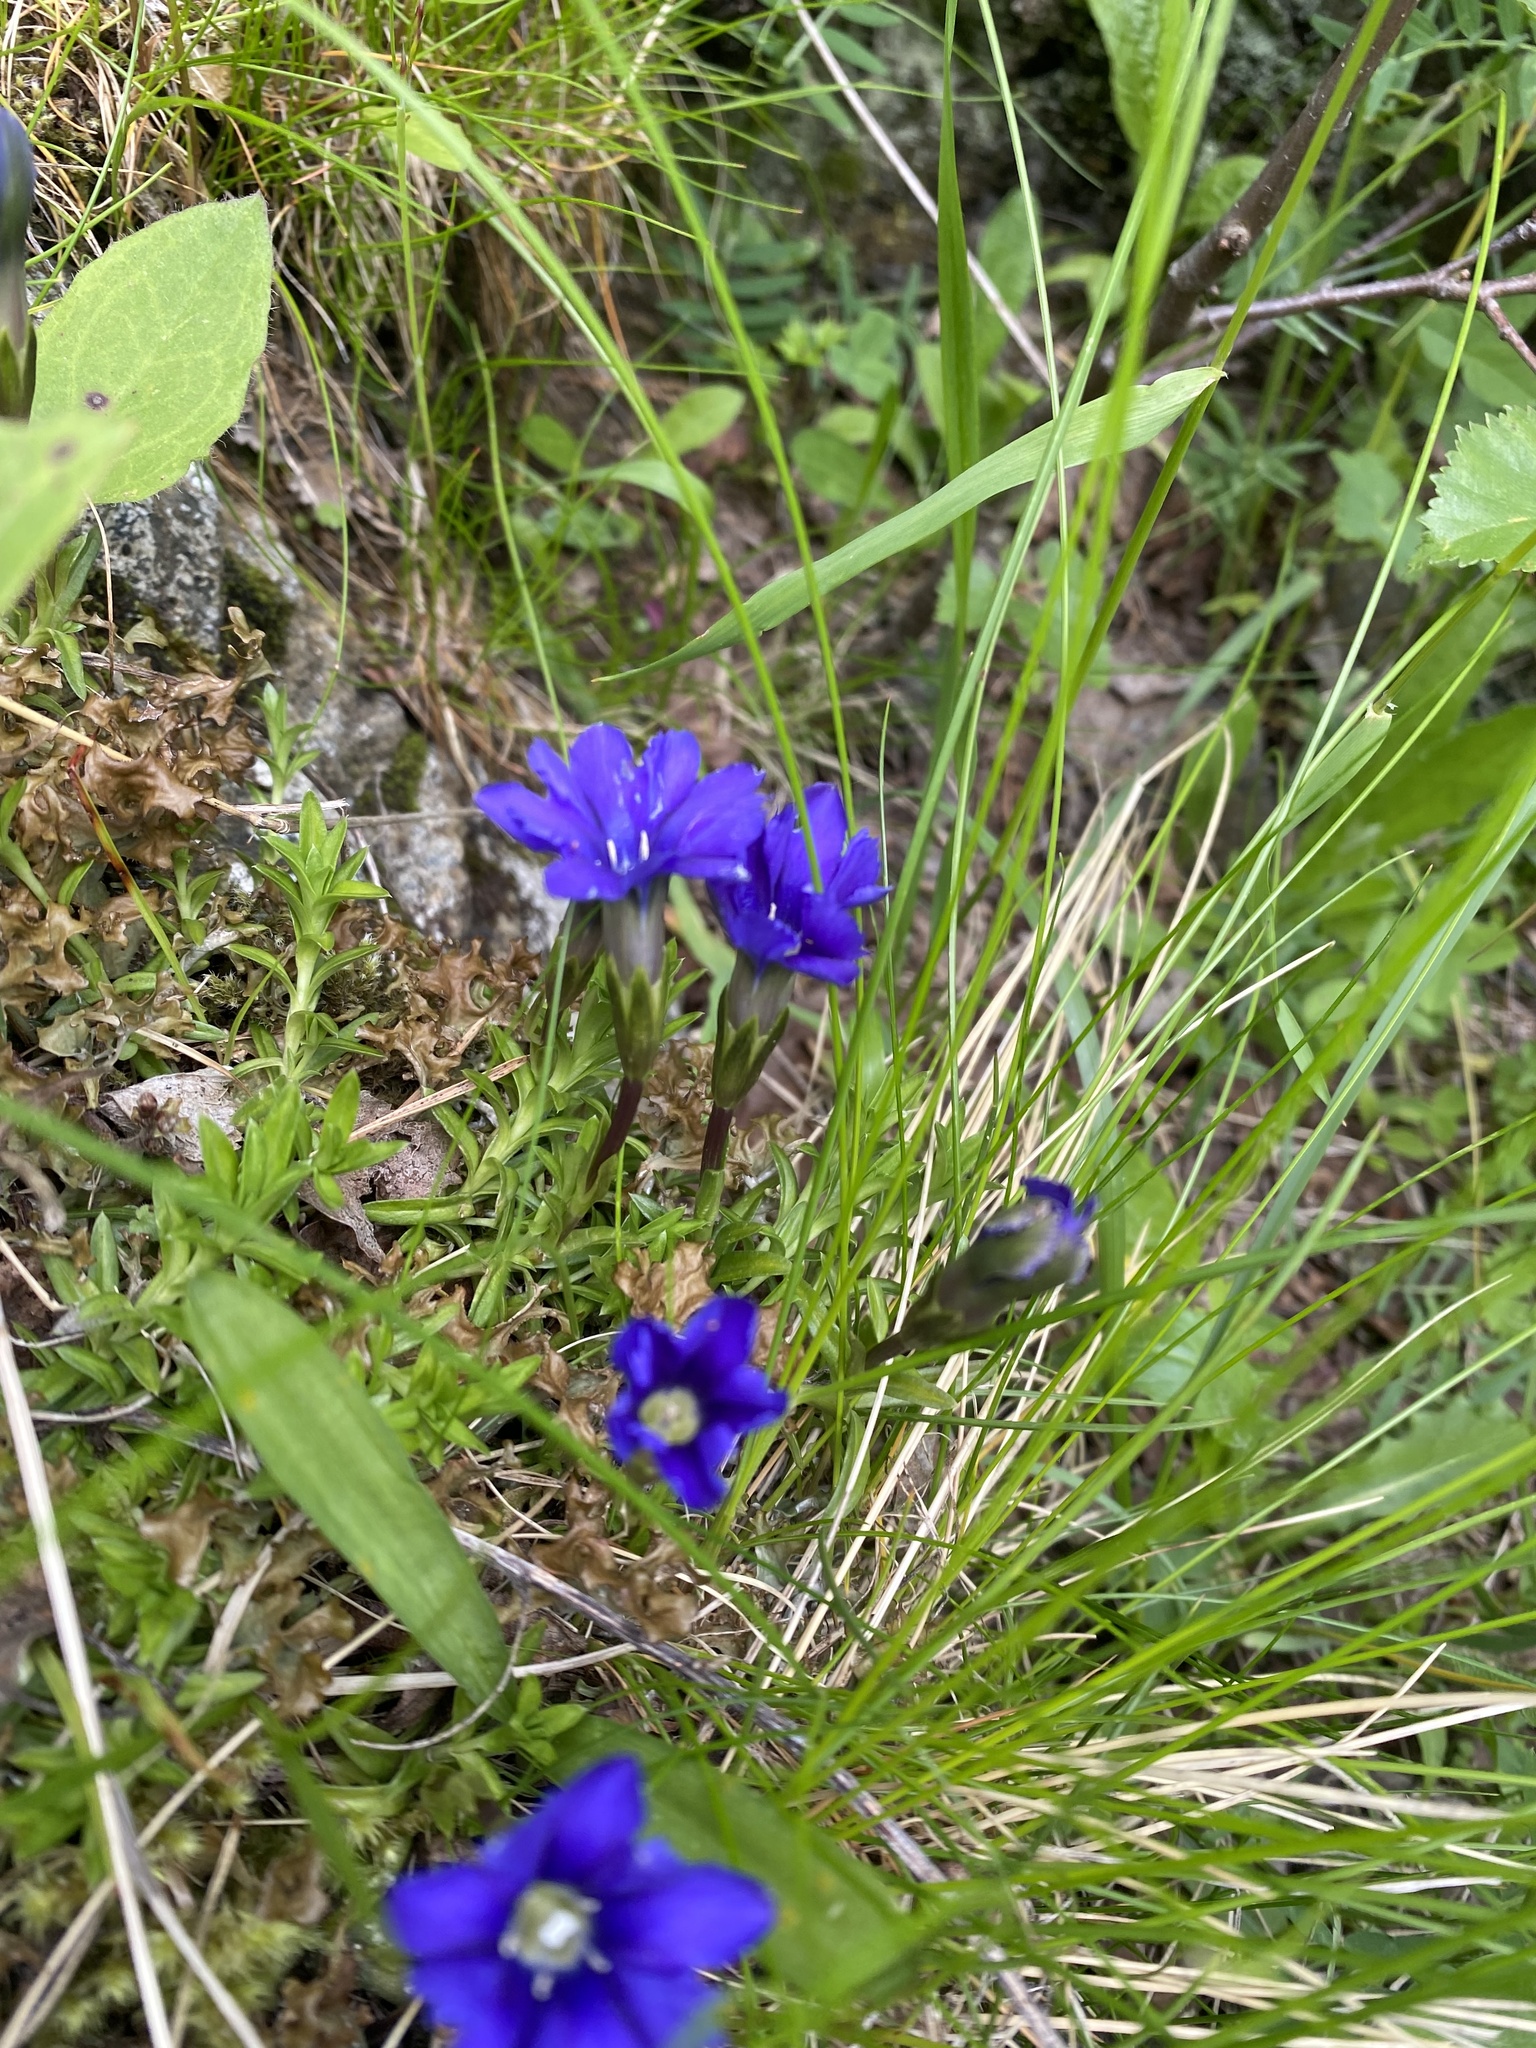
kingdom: Plantae
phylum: Tracheophyta
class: Magnoliopsida
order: Gentianales
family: Gentianaceae
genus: Gentiana
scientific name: Gentiana dshimilensis
